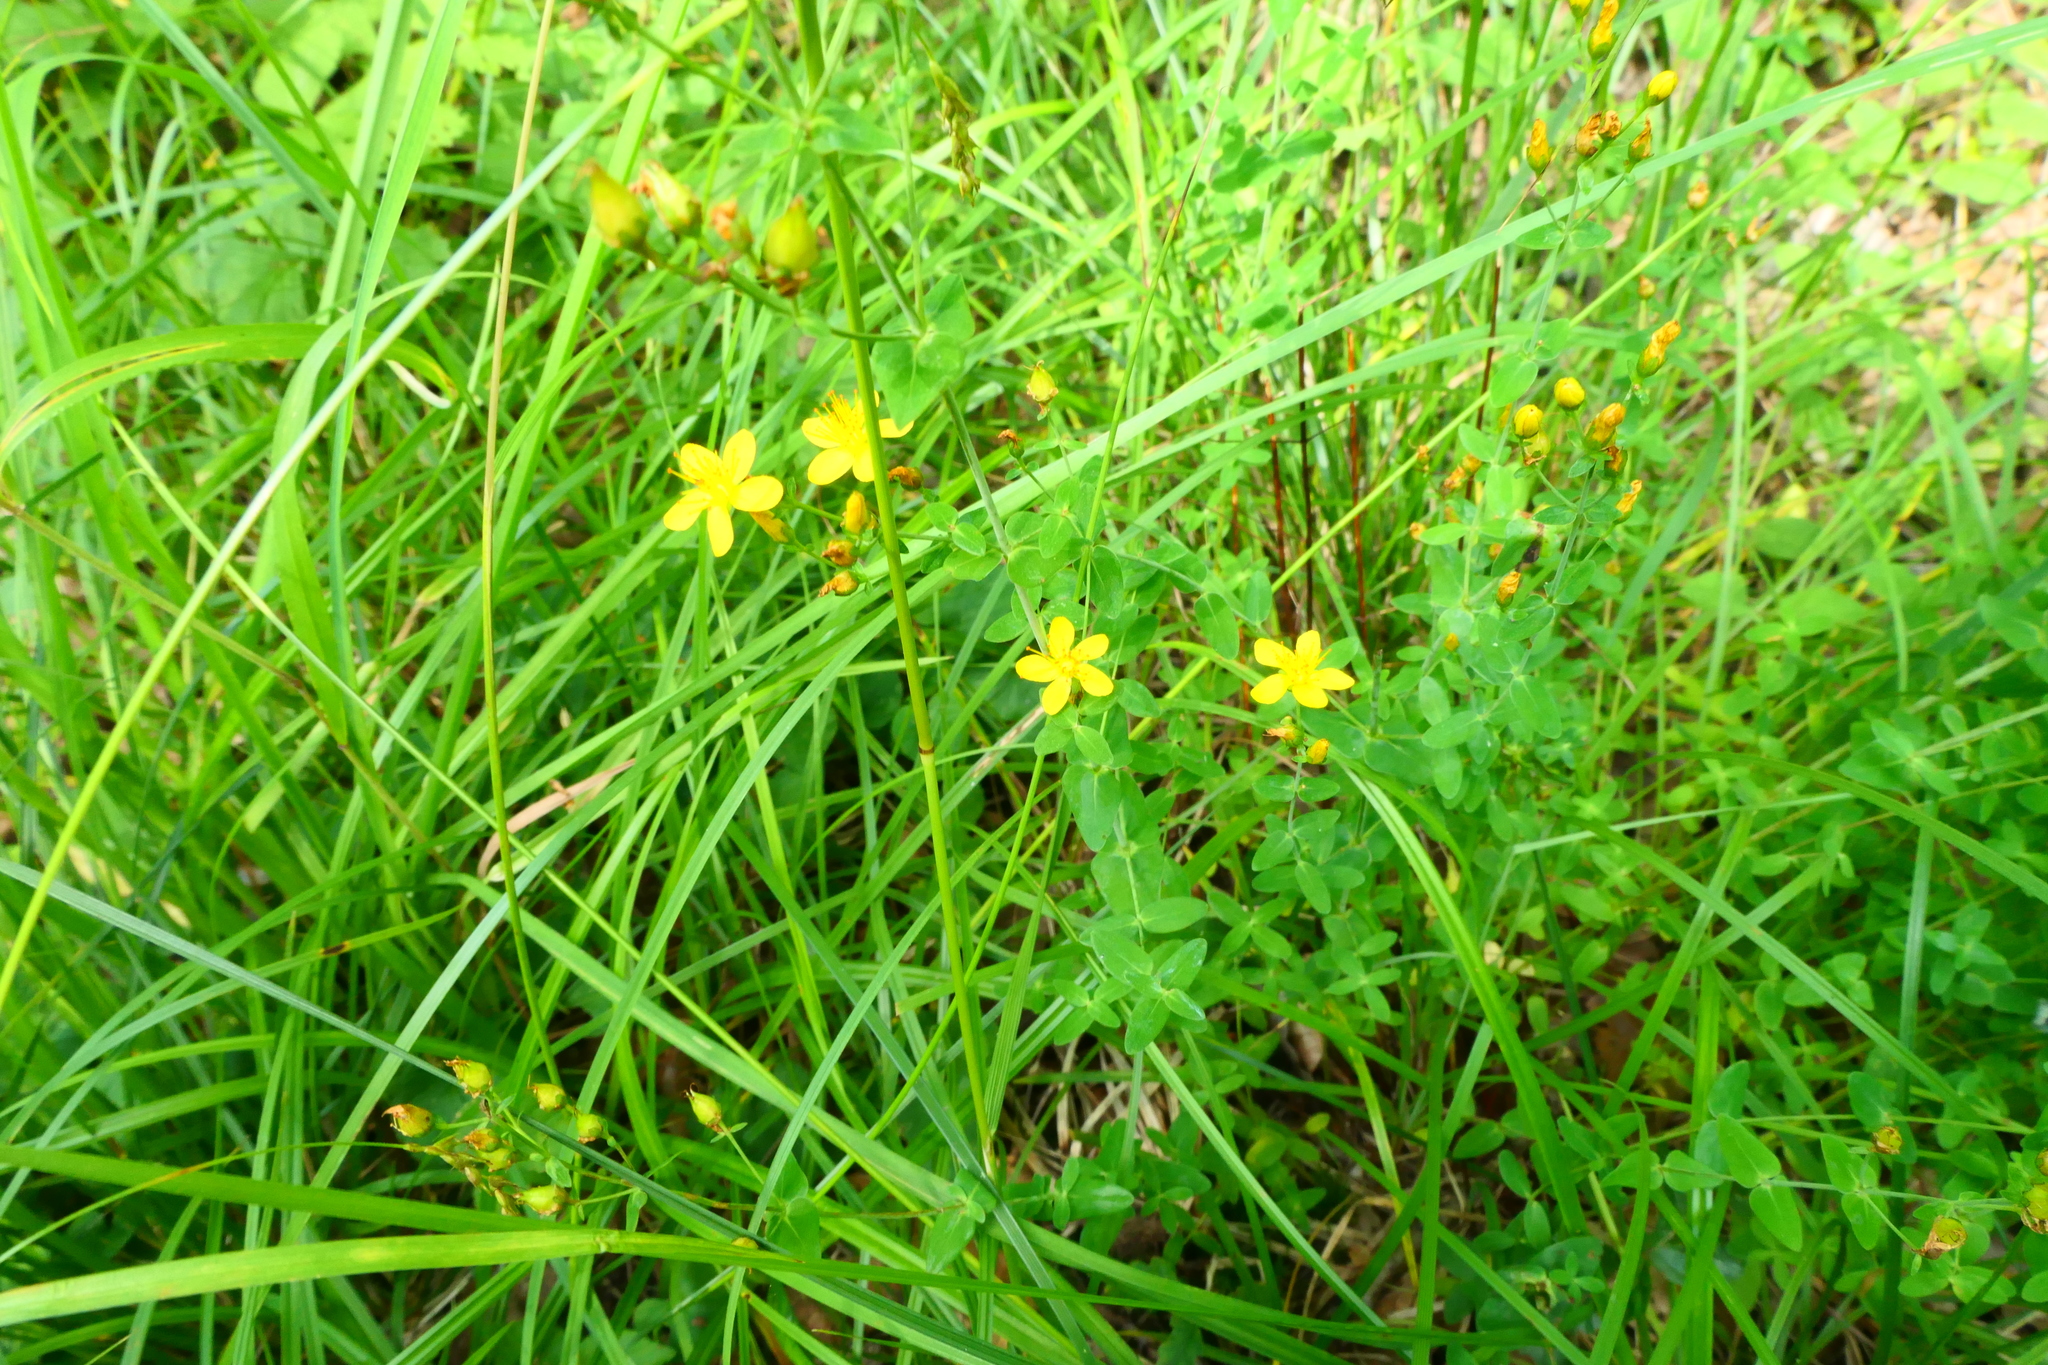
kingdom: Plantae
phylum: Tracheophyta
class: Magnoliopsida
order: Malpighiales
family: Hypericaceae
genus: Hypericum
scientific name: Hypericum pulchrum
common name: Slender st. john's-wort
